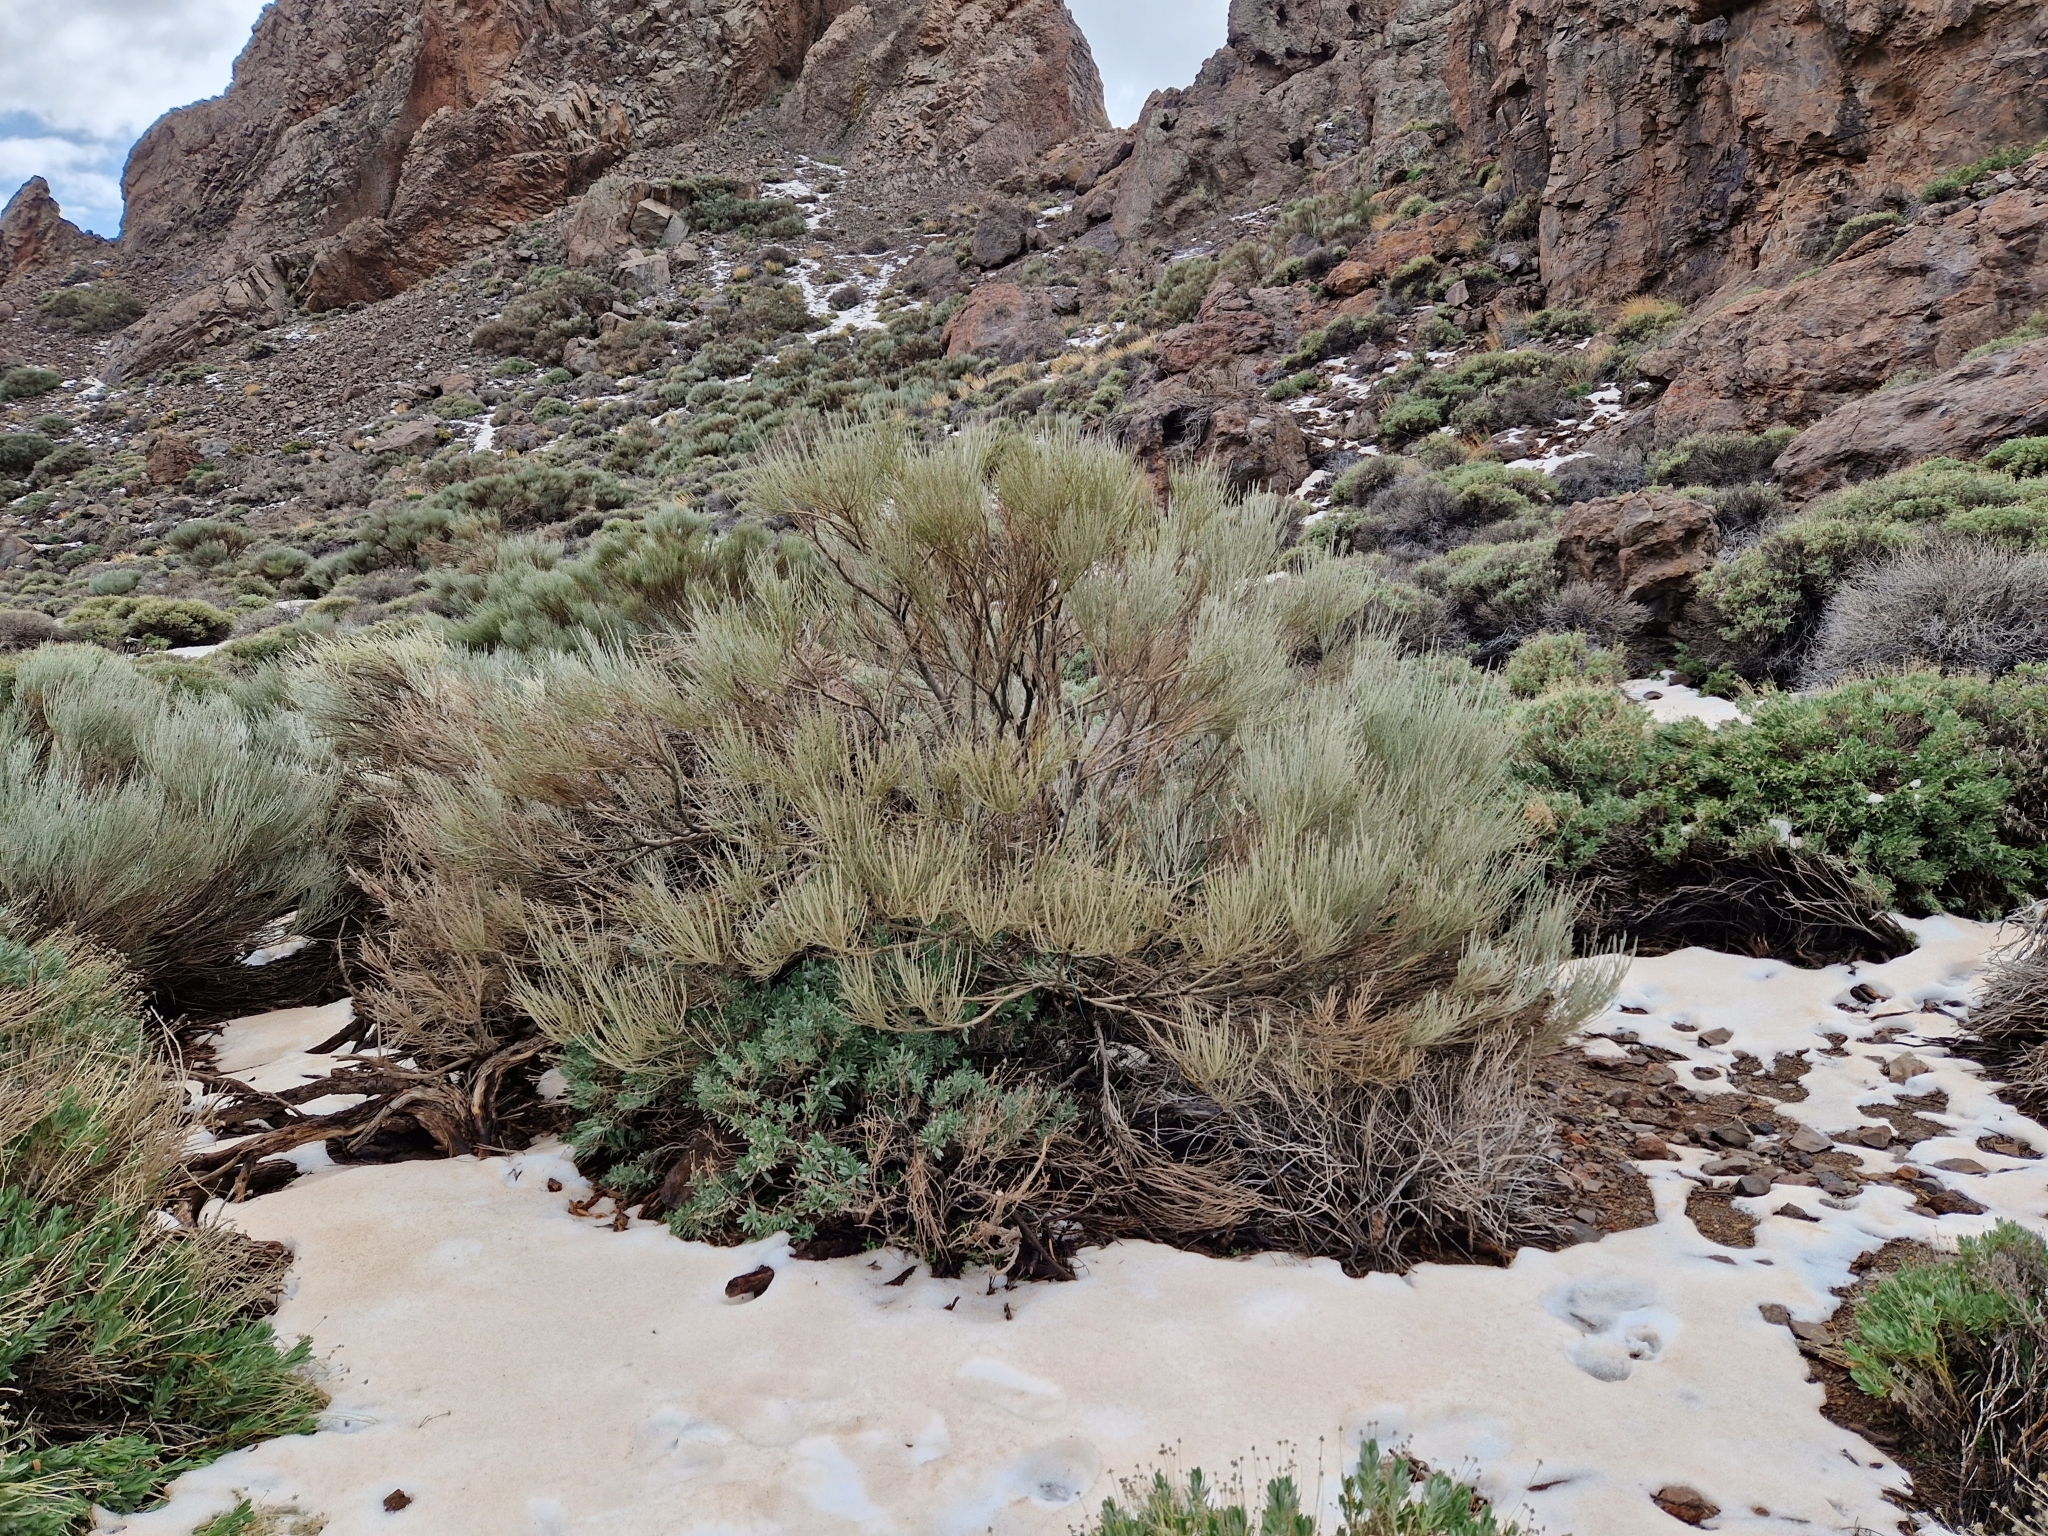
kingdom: Plantae
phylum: Tracheophyta
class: Magnoliopsida
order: Fabales
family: Fabaceae
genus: Cytisus
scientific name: Cytisus supranubius
